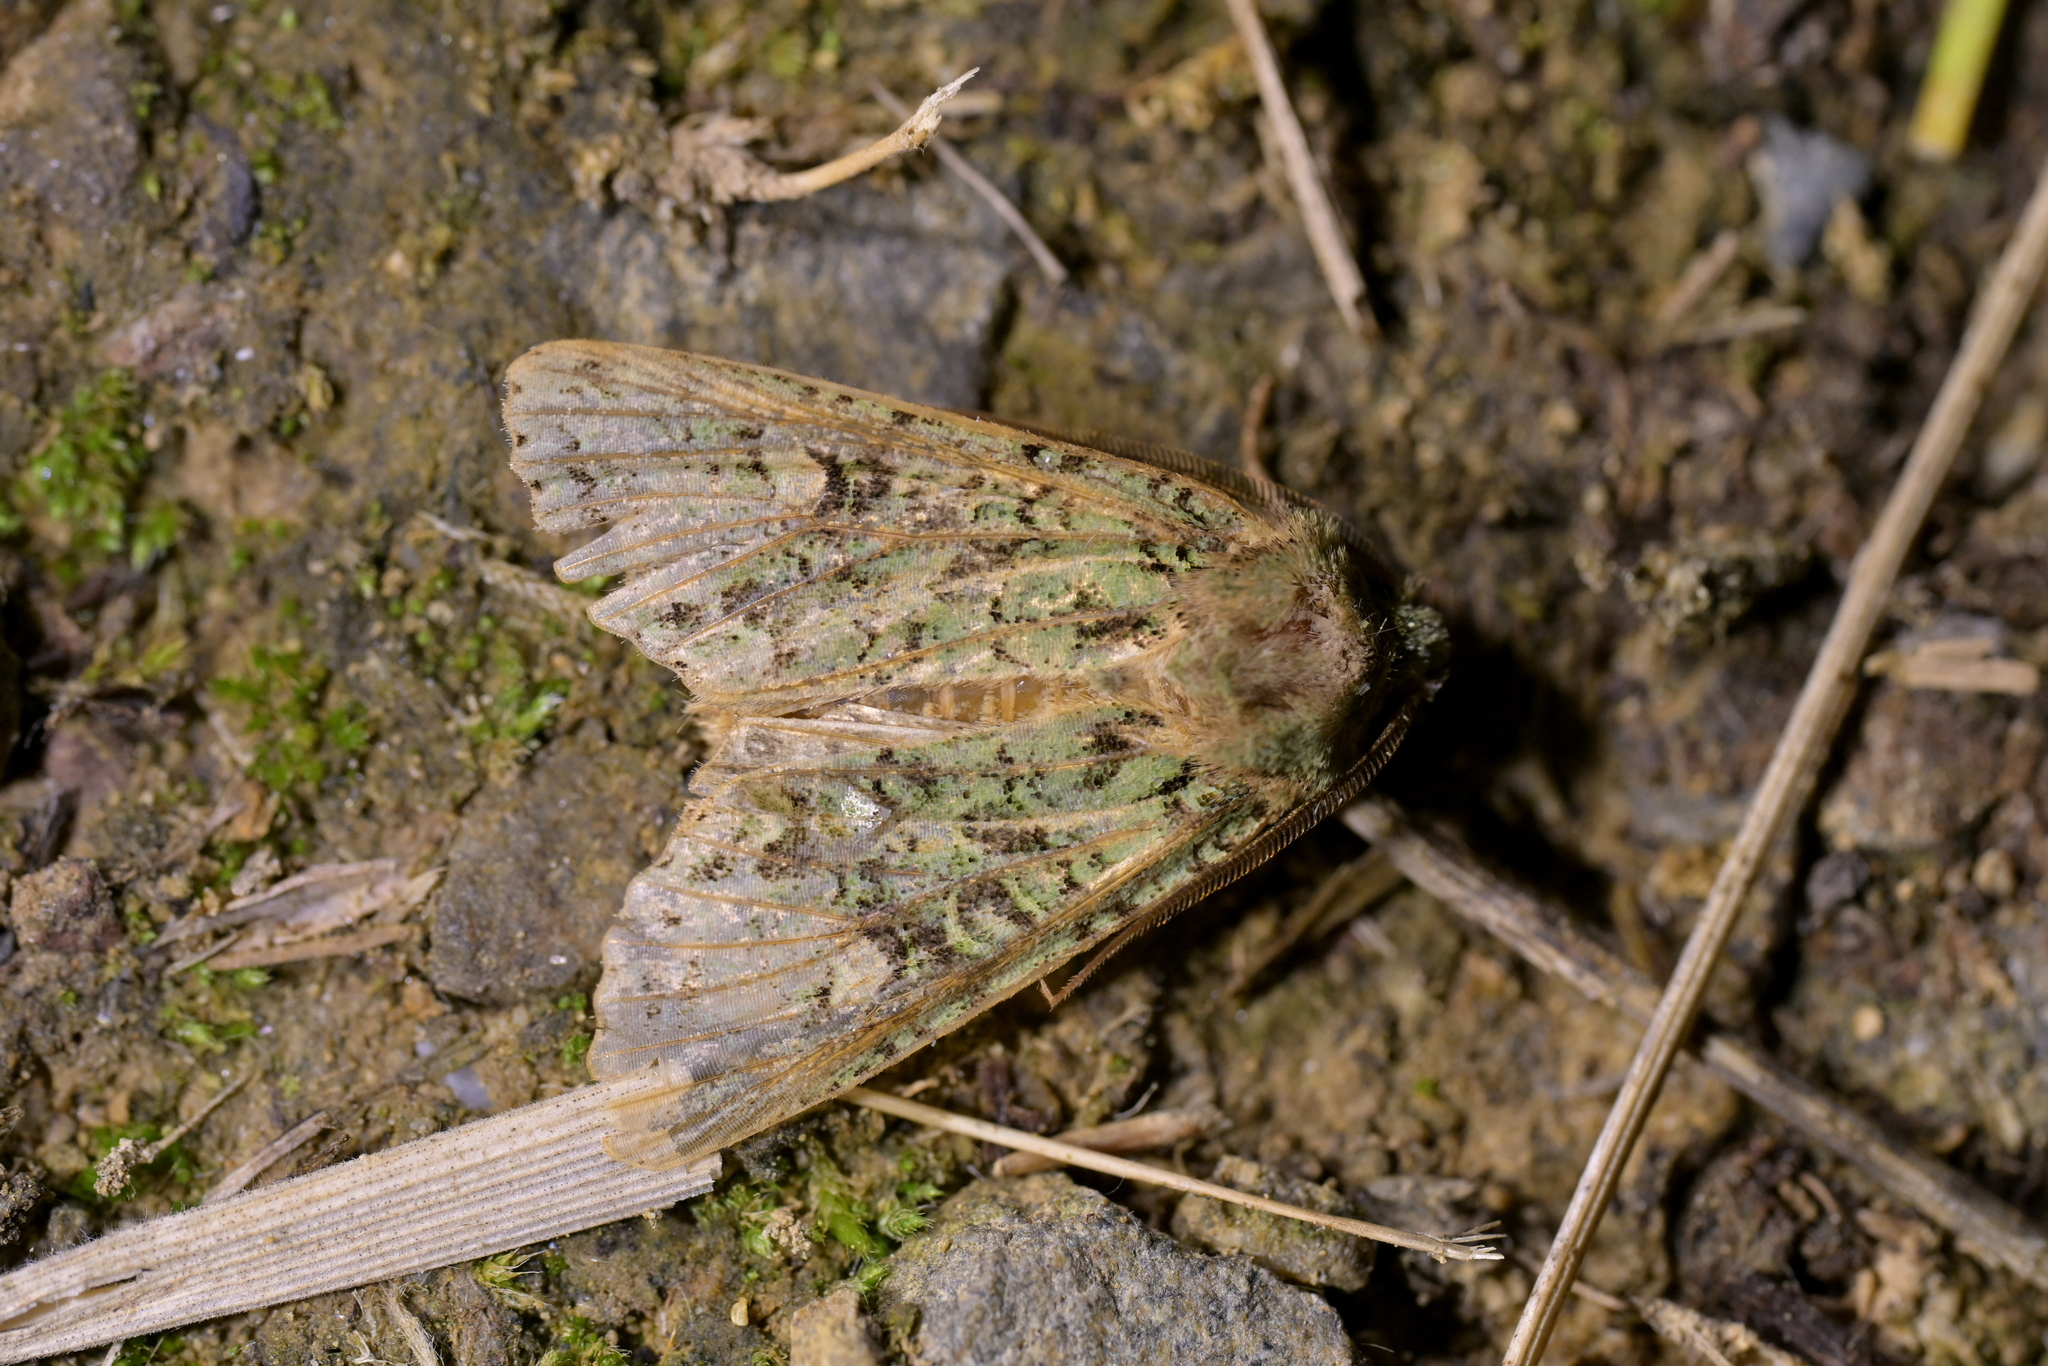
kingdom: Animalia
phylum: Arthropoda
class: Insecta
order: Lepidoptera
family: Noctuidae
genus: Ichneutica
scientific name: Ichneutica
